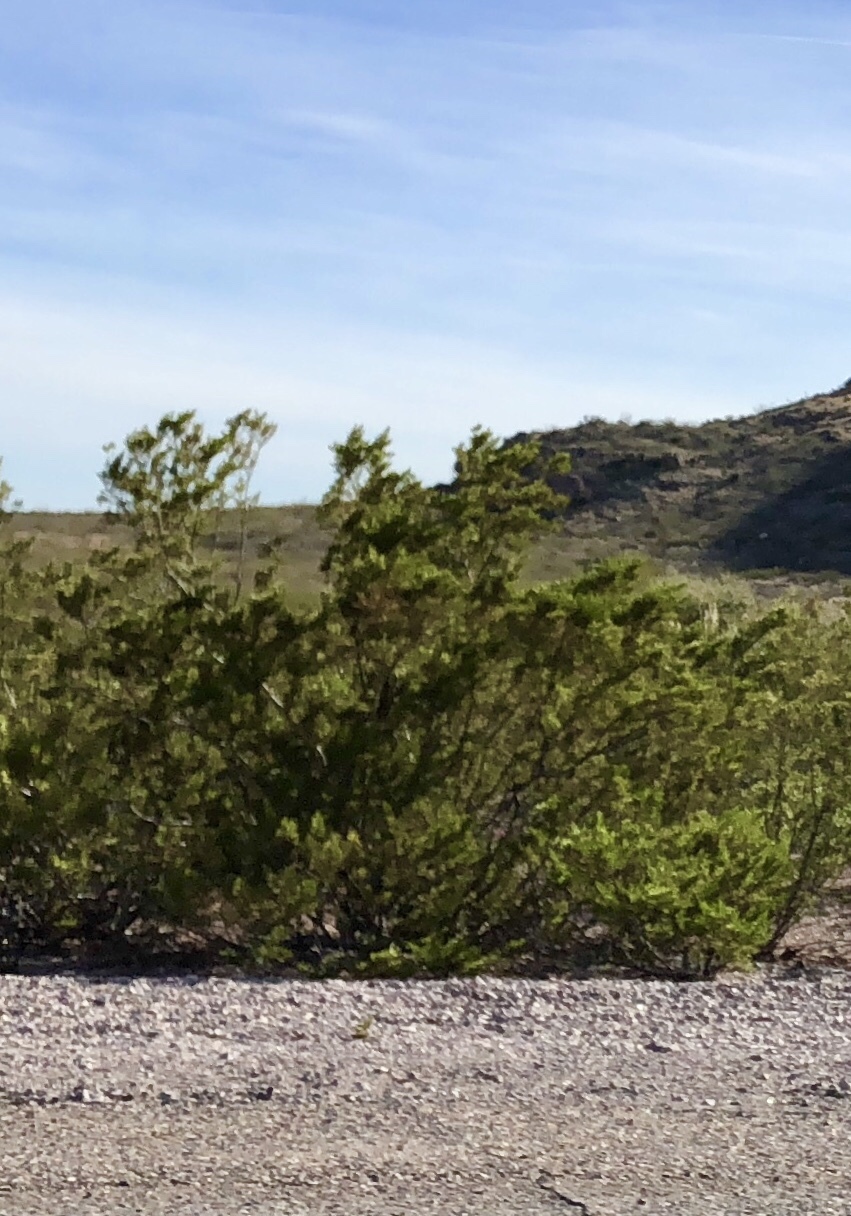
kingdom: Plantae
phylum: Tracheophyta
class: Magnoliopsida
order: Zygophyllales
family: Zygophyllaceae
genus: Larrea
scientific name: Larrea tridentata
